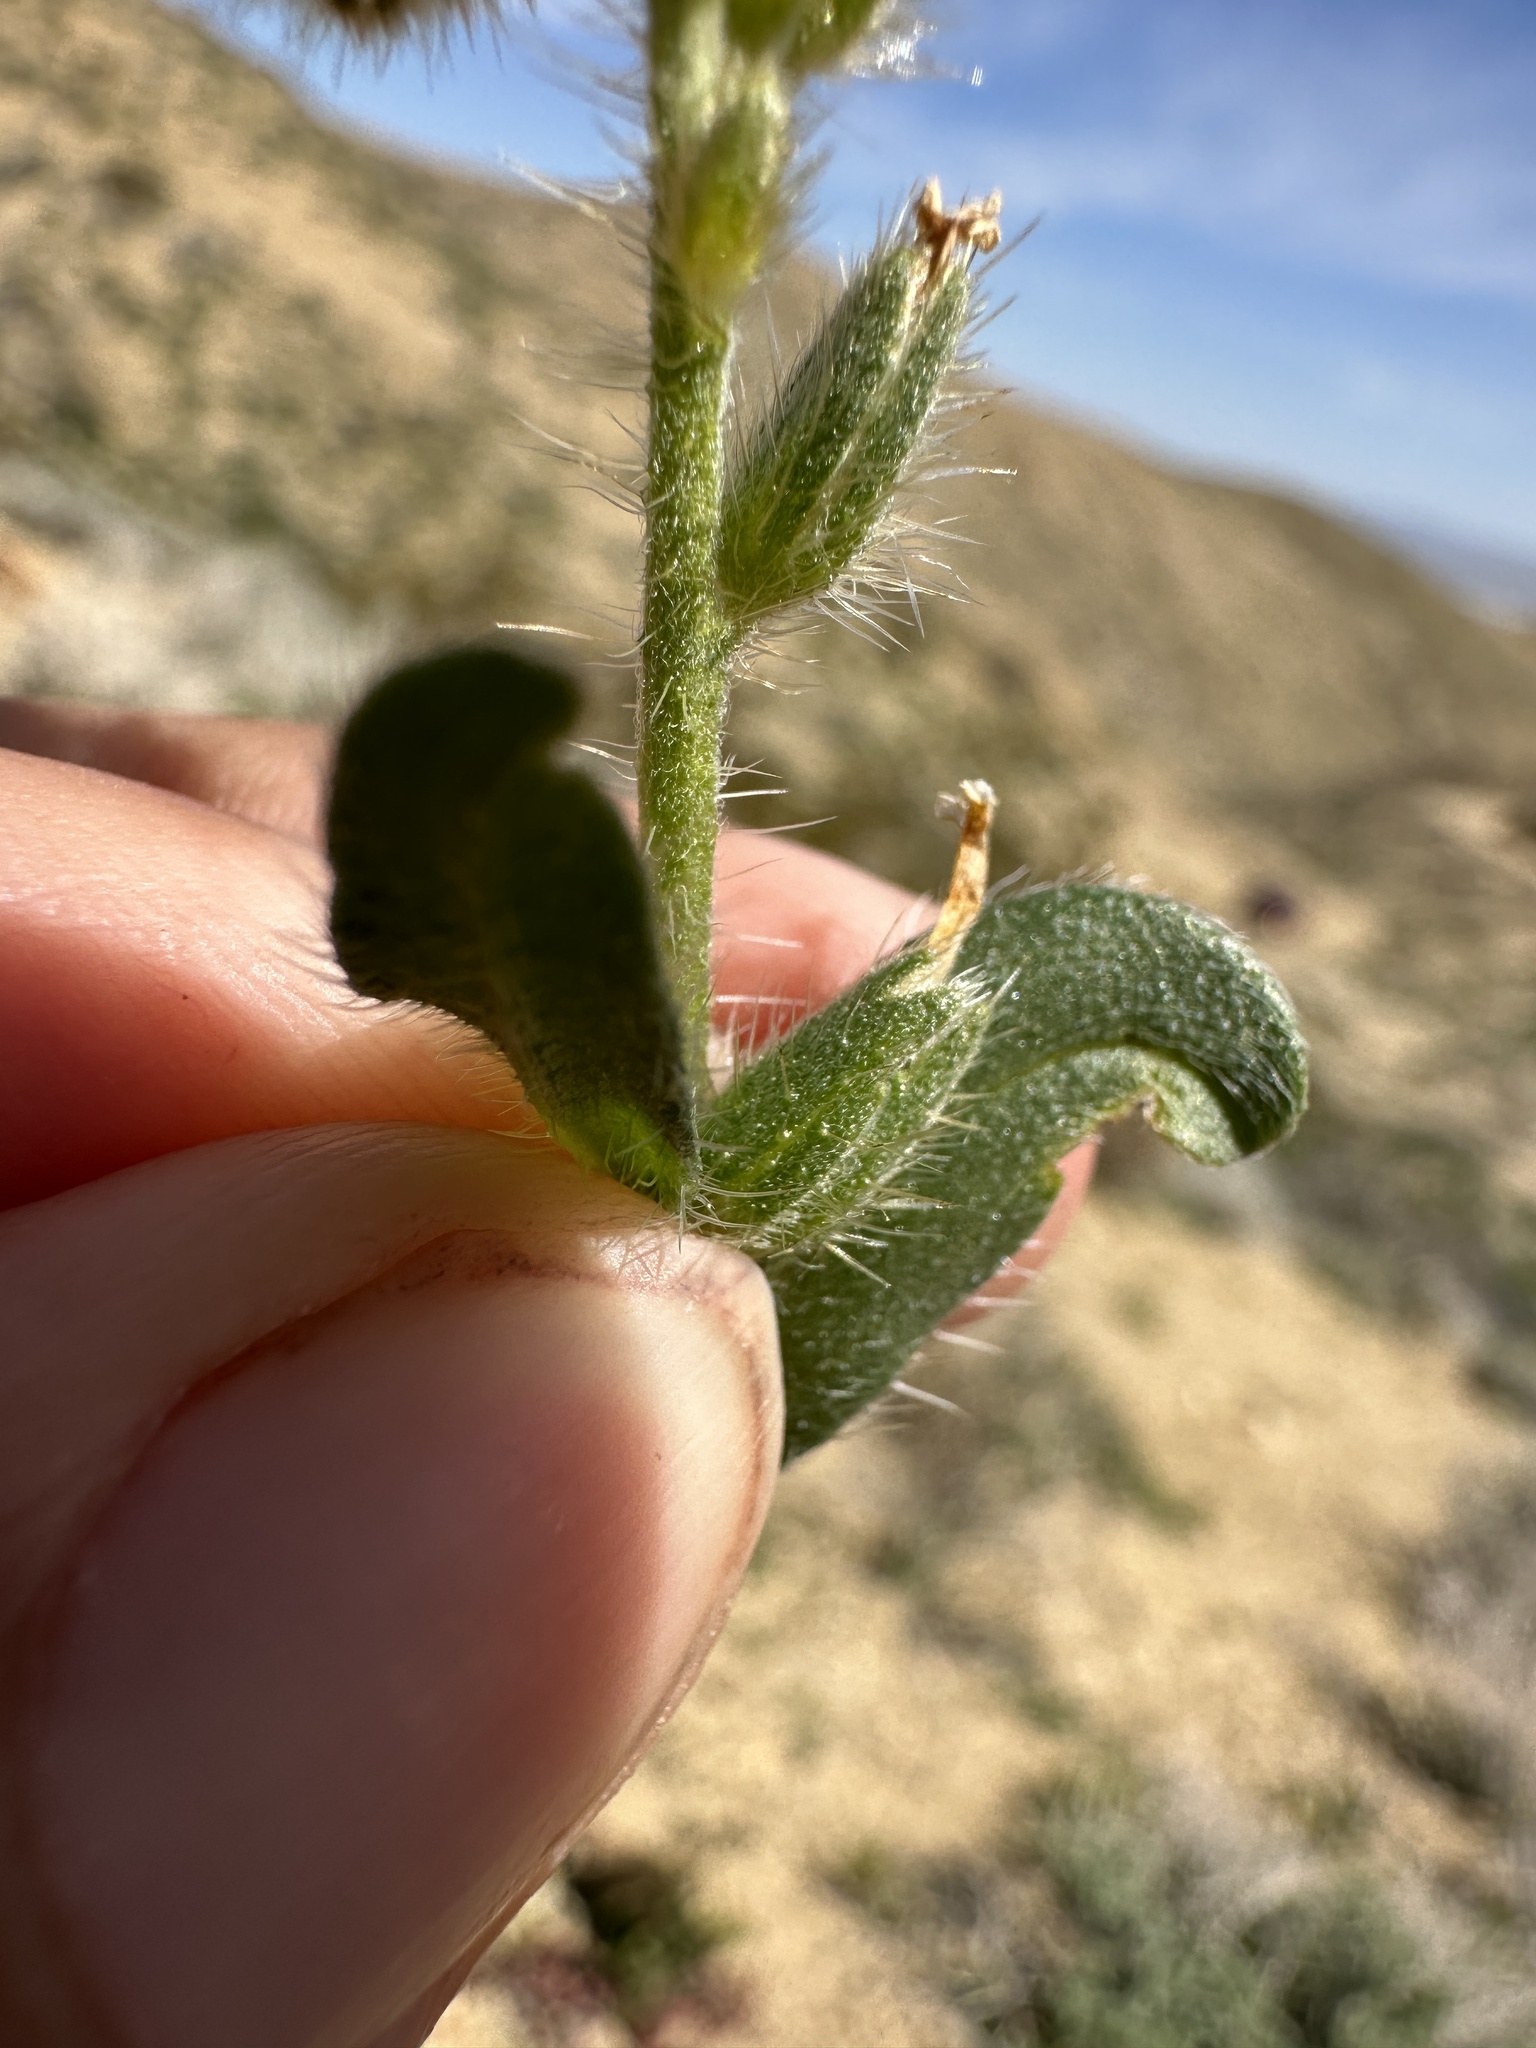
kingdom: Plantae
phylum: Tracheophyta
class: Magnoliopsida
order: Boraginales
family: Boraginaceae
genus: Amsinckia
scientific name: Amsinckia tessellata
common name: Tessellate fiddleneck
